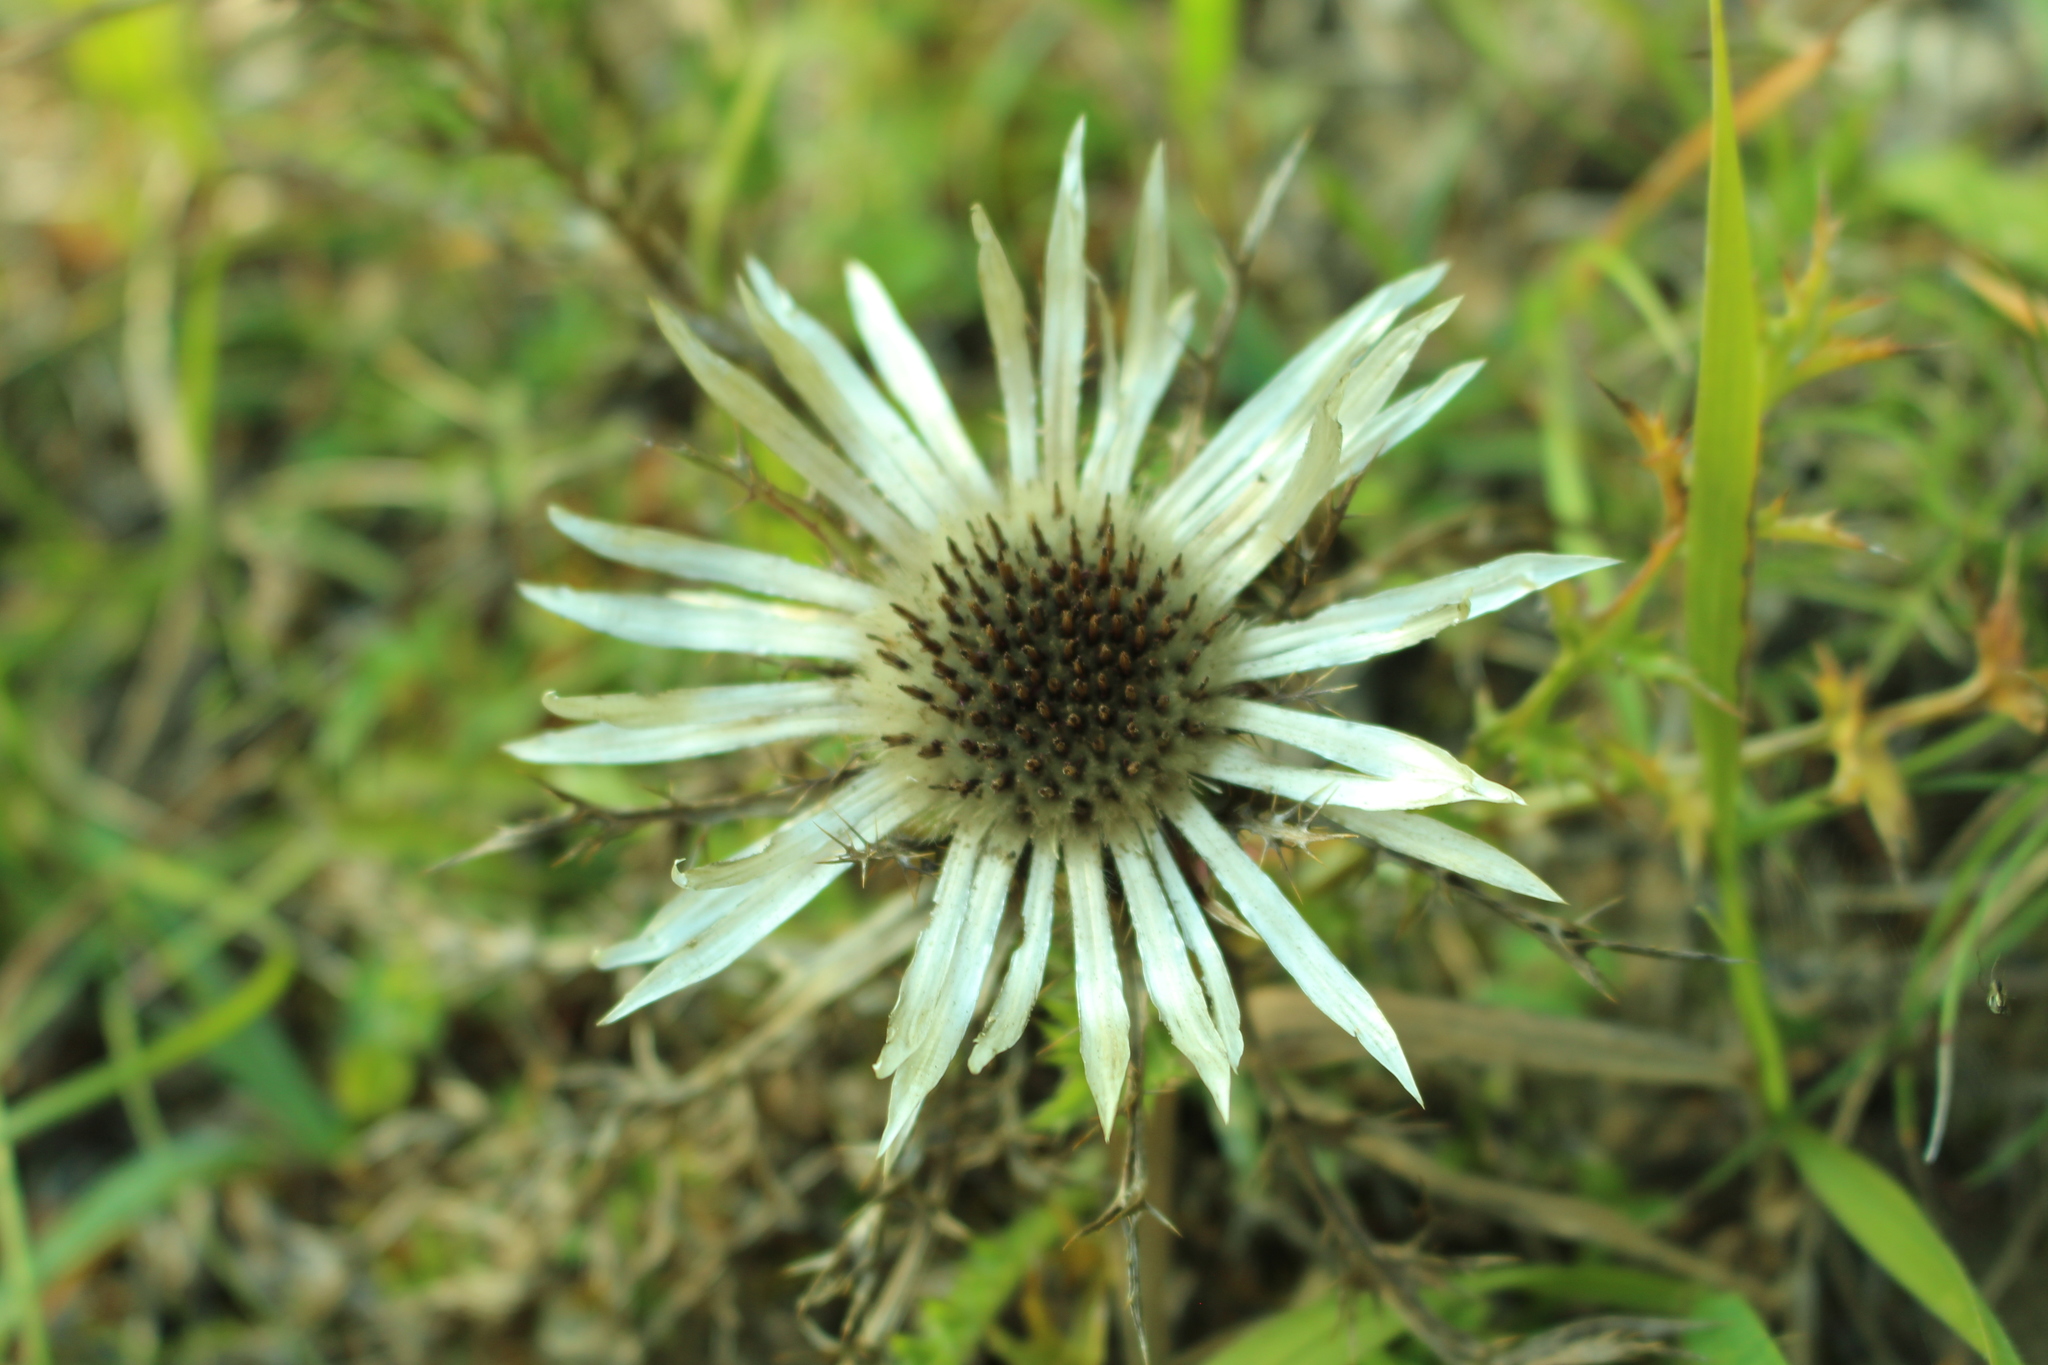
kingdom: Plantae
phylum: Tracheophyta
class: Magnoliopsida
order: Asterales
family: Asteraceae
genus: Carlina
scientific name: Carlina acaulis
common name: Stemless carline thistle
